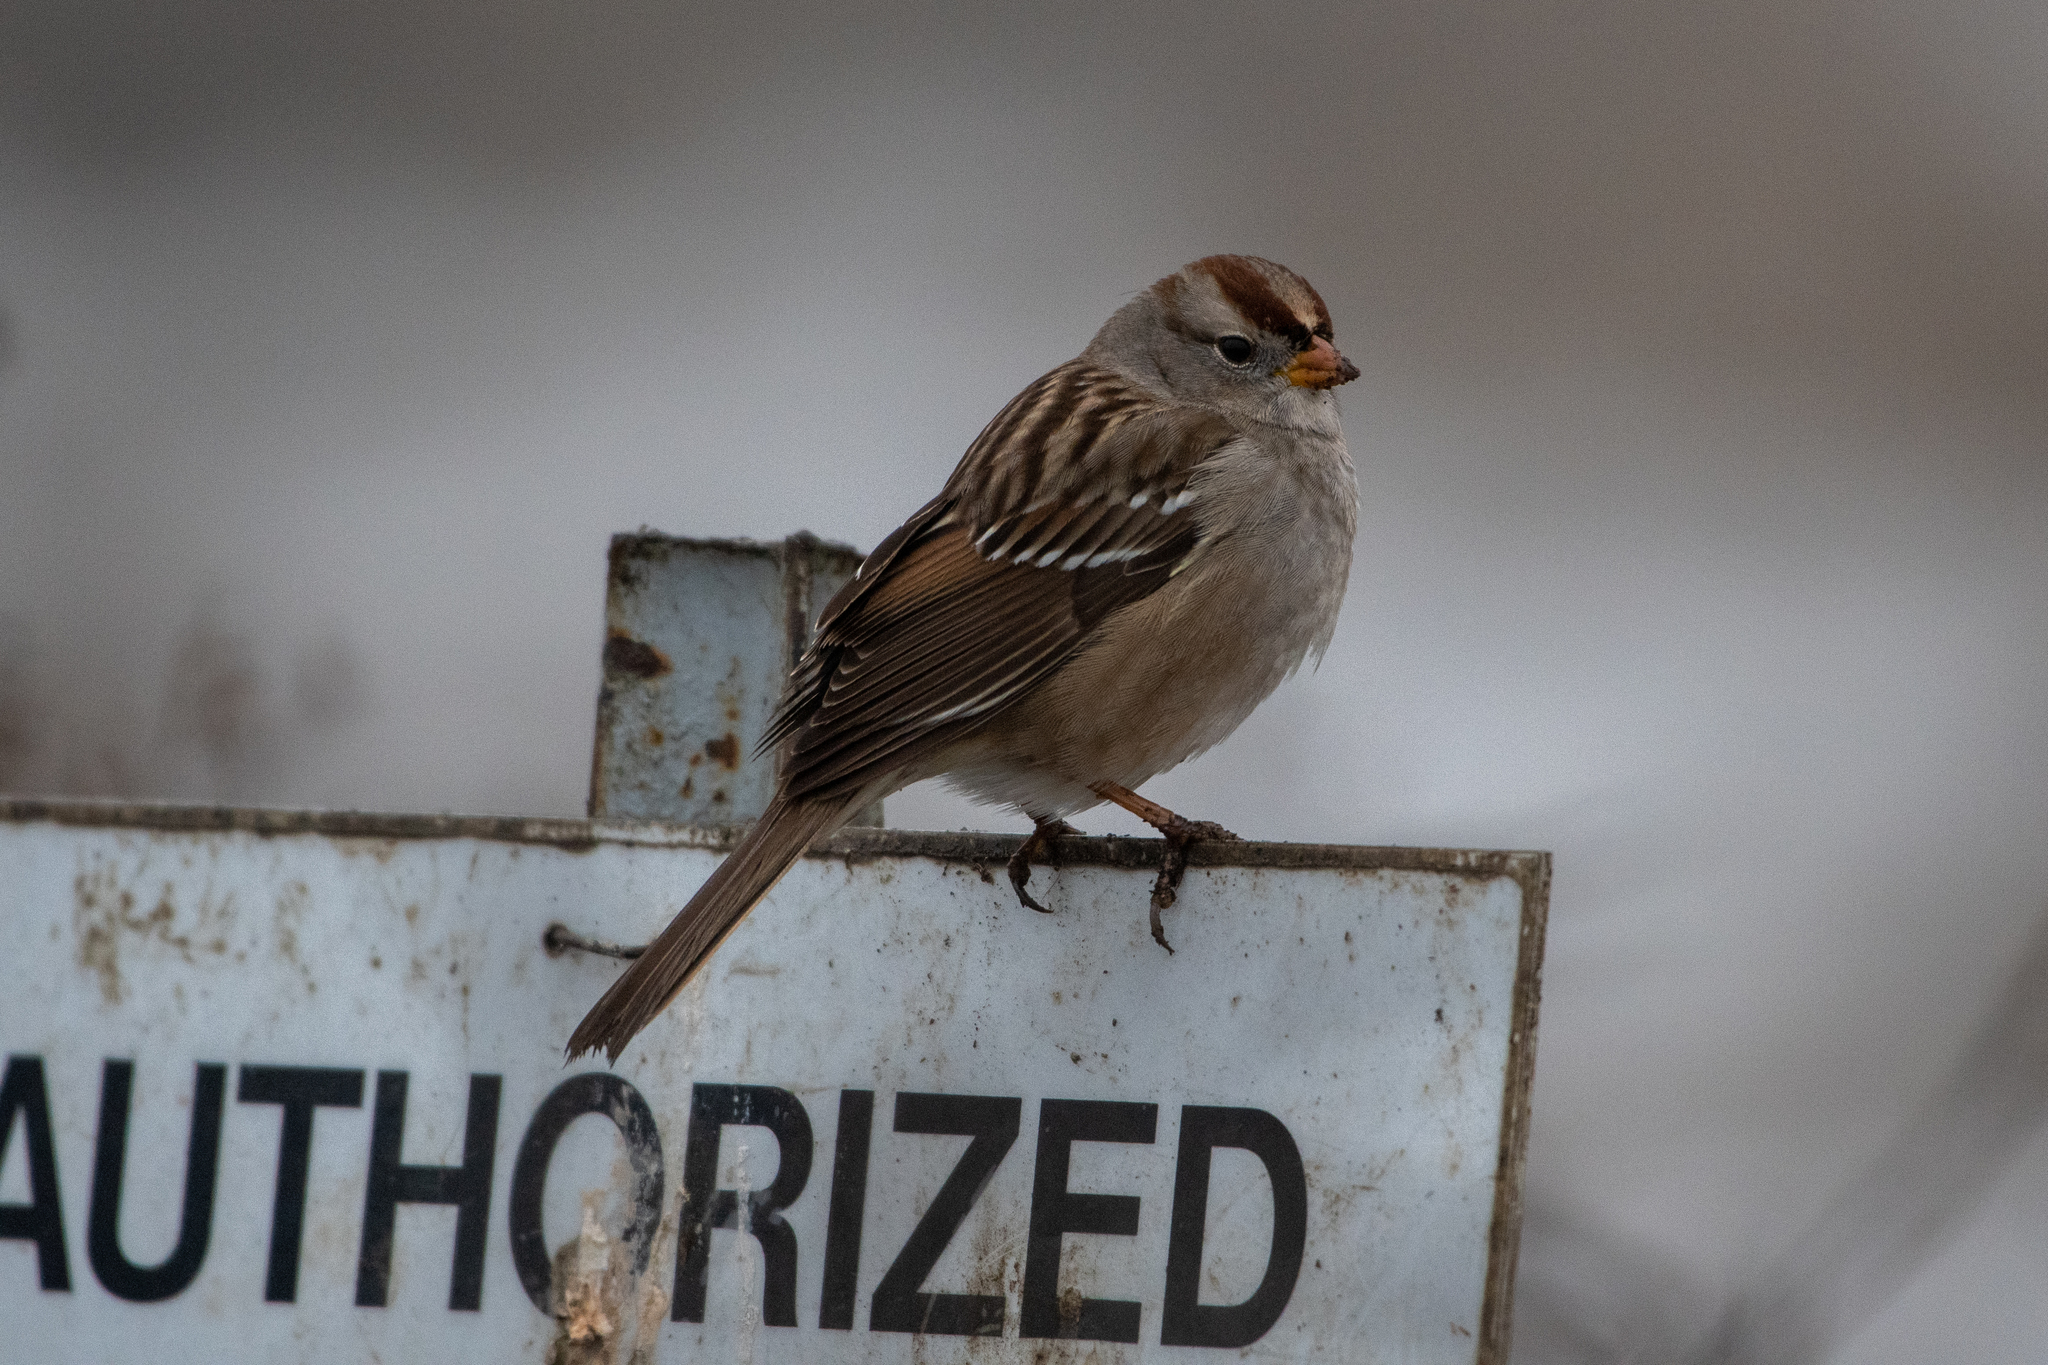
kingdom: Animalia
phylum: Chordata
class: Aves
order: Passeriformes
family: Passerellidae
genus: Zonotrichia
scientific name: Zonotrichia leucophrys
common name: White-crowned sparrow
